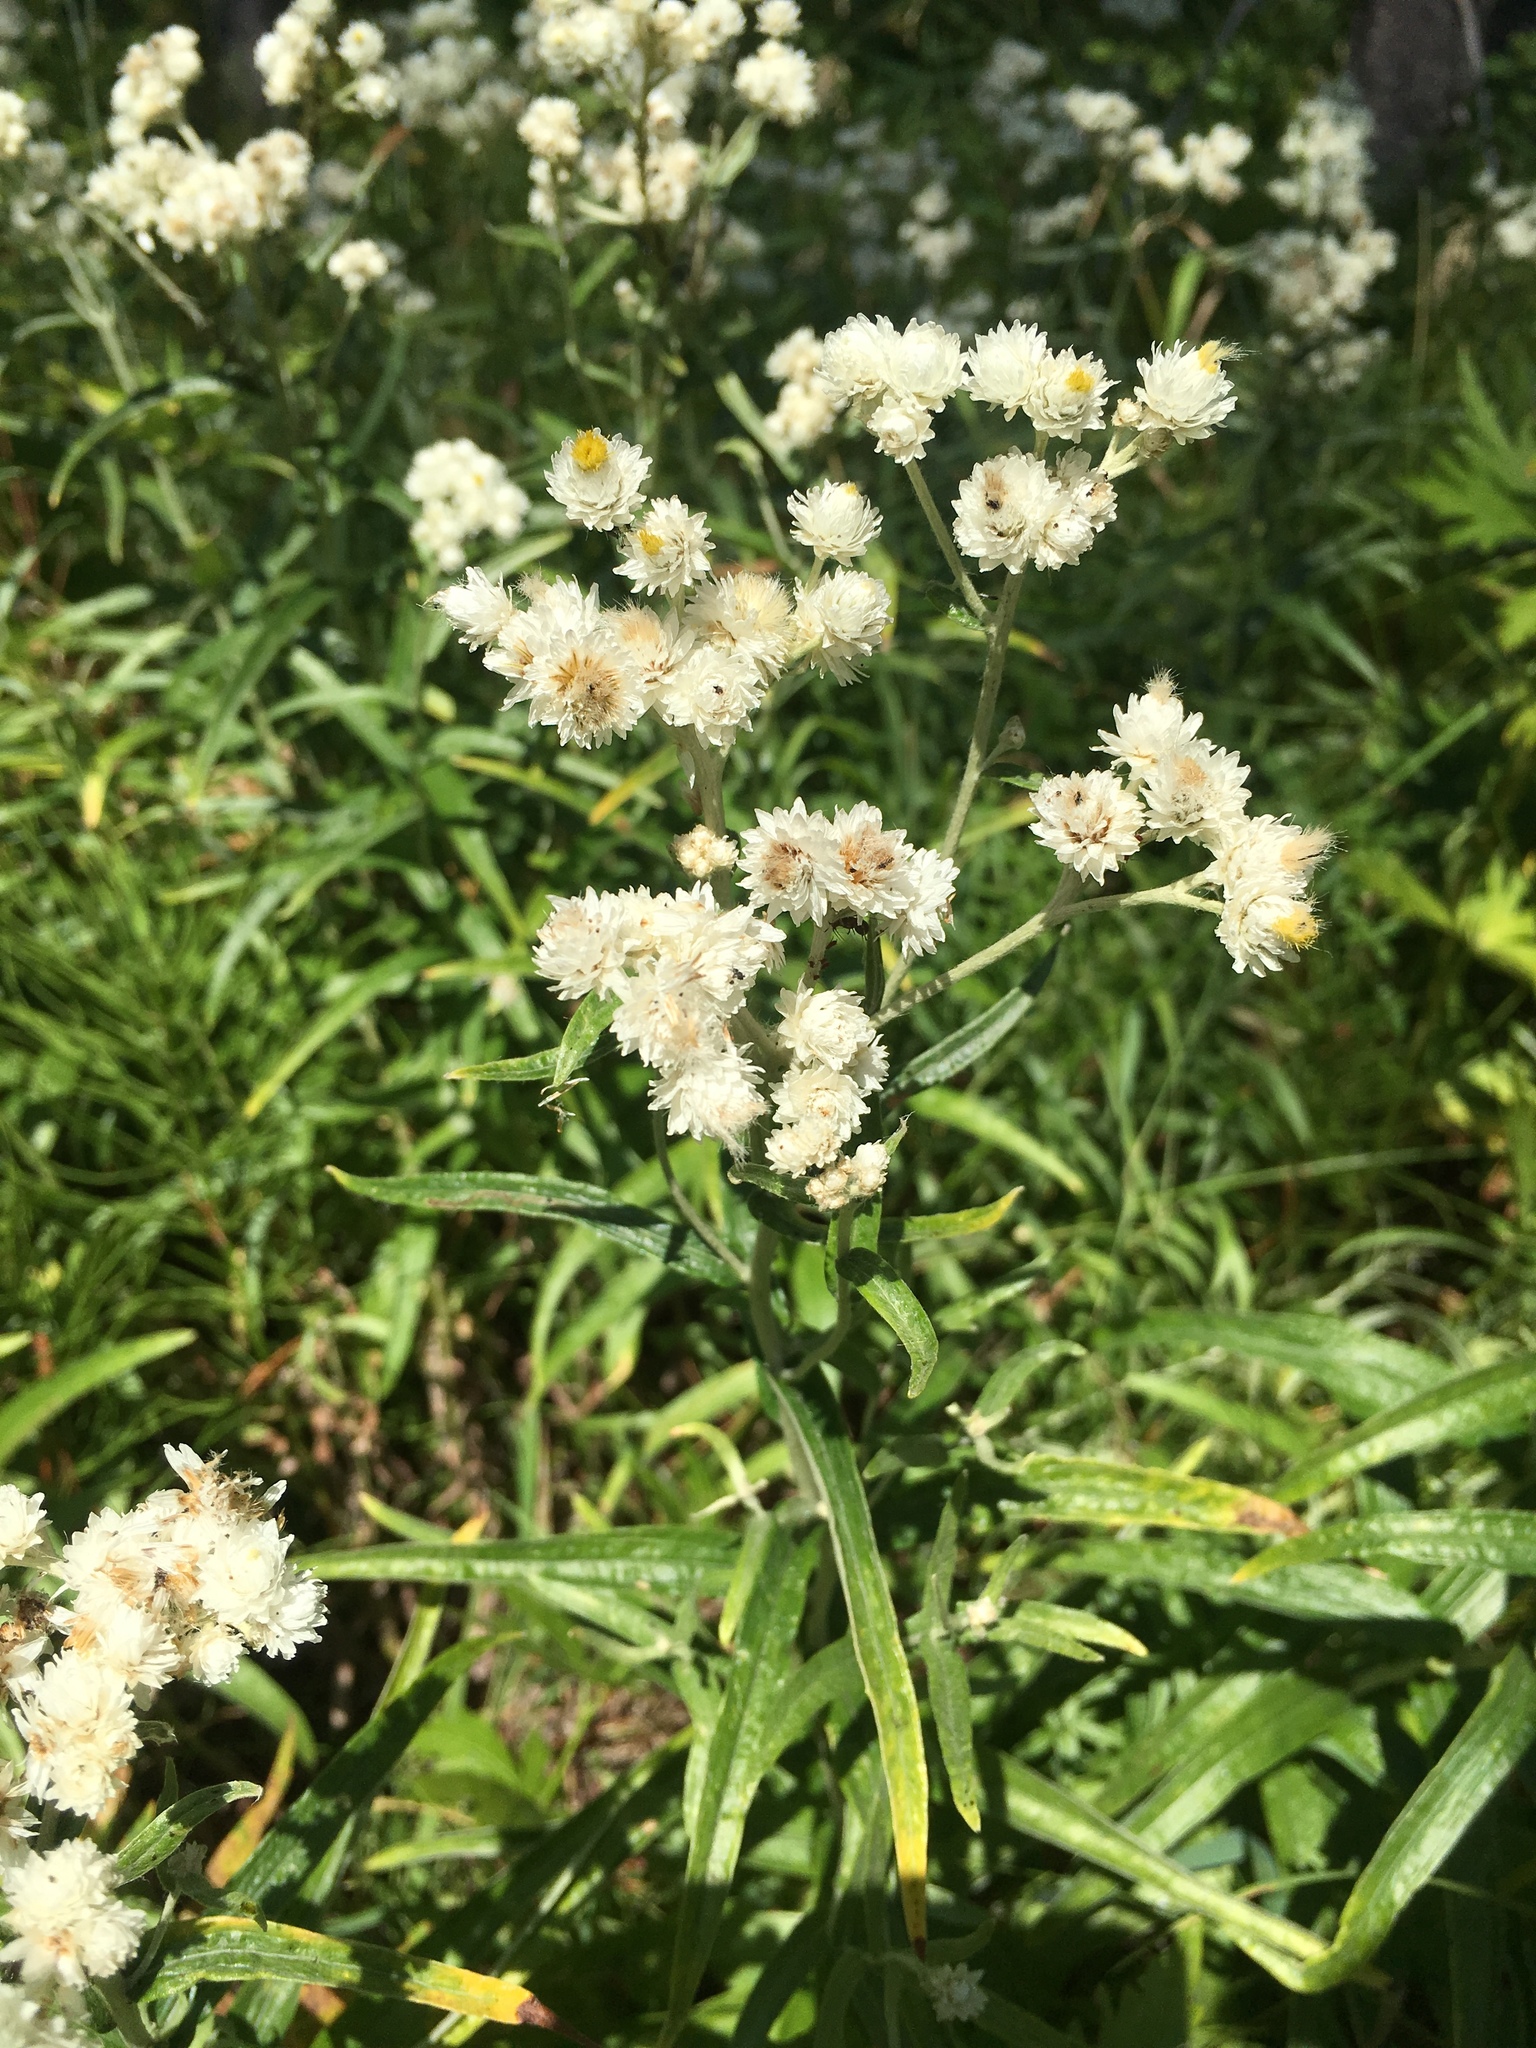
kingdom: Plantae
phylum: Tracheophyta
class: Magnoliopsida
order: Asterales
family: Asteraceae
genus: Anaphalis
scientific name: Anaphalis margaritacea
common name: Pearly everlasting
